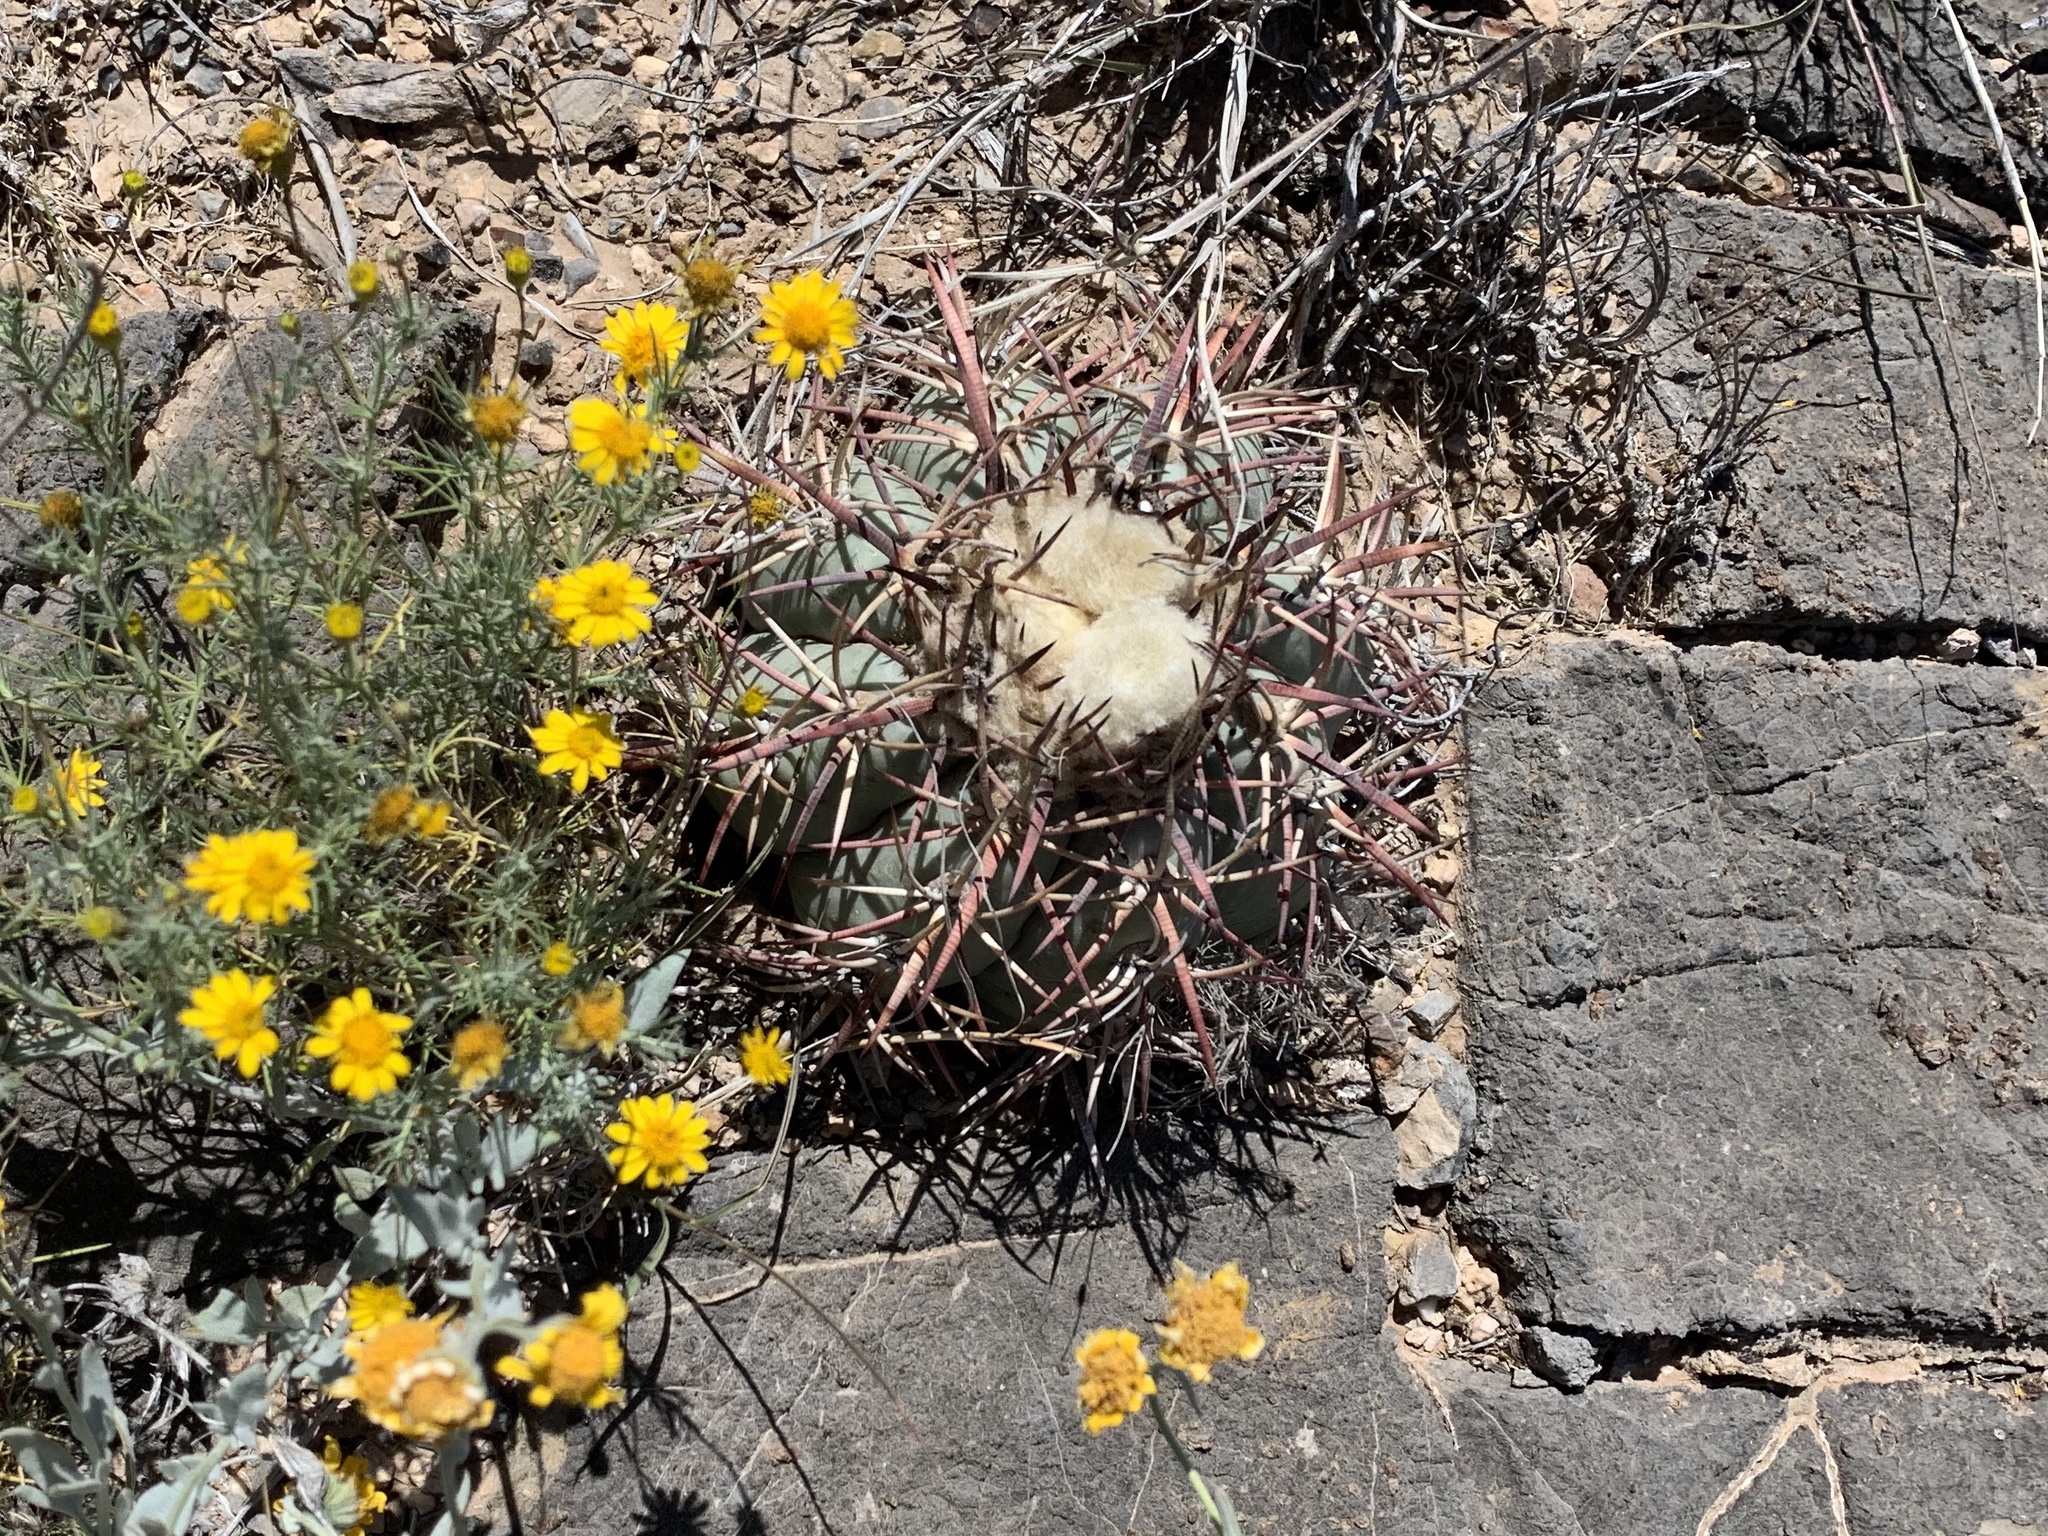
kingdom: Plantae
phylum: Tracheophyta
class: Magnoliopsida
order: Caryophyllales
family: Cactaceae
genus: Echinocactus
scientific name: Echinocactus horizonthalonius
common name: Devilshead
